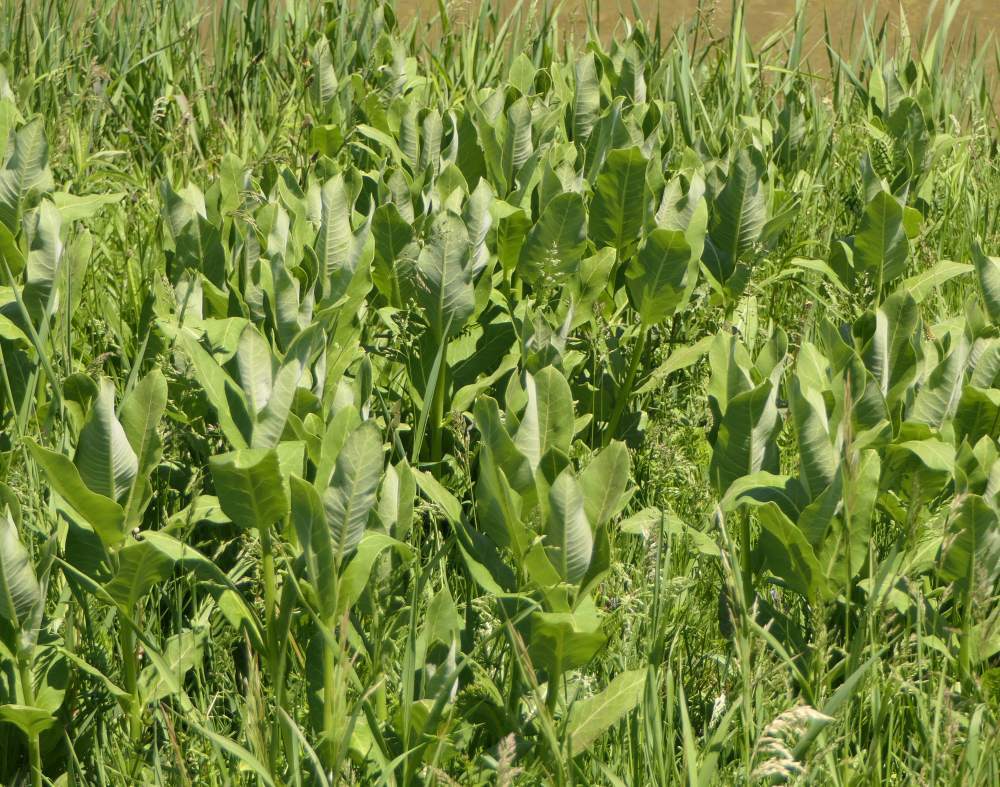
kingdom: Plantae
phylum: Tracheophyta
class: Magnoliopsida
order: Gentianales
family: Apocynaceae
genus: Asclepias
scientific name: Asclepias syriaca
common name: Common milkweed
